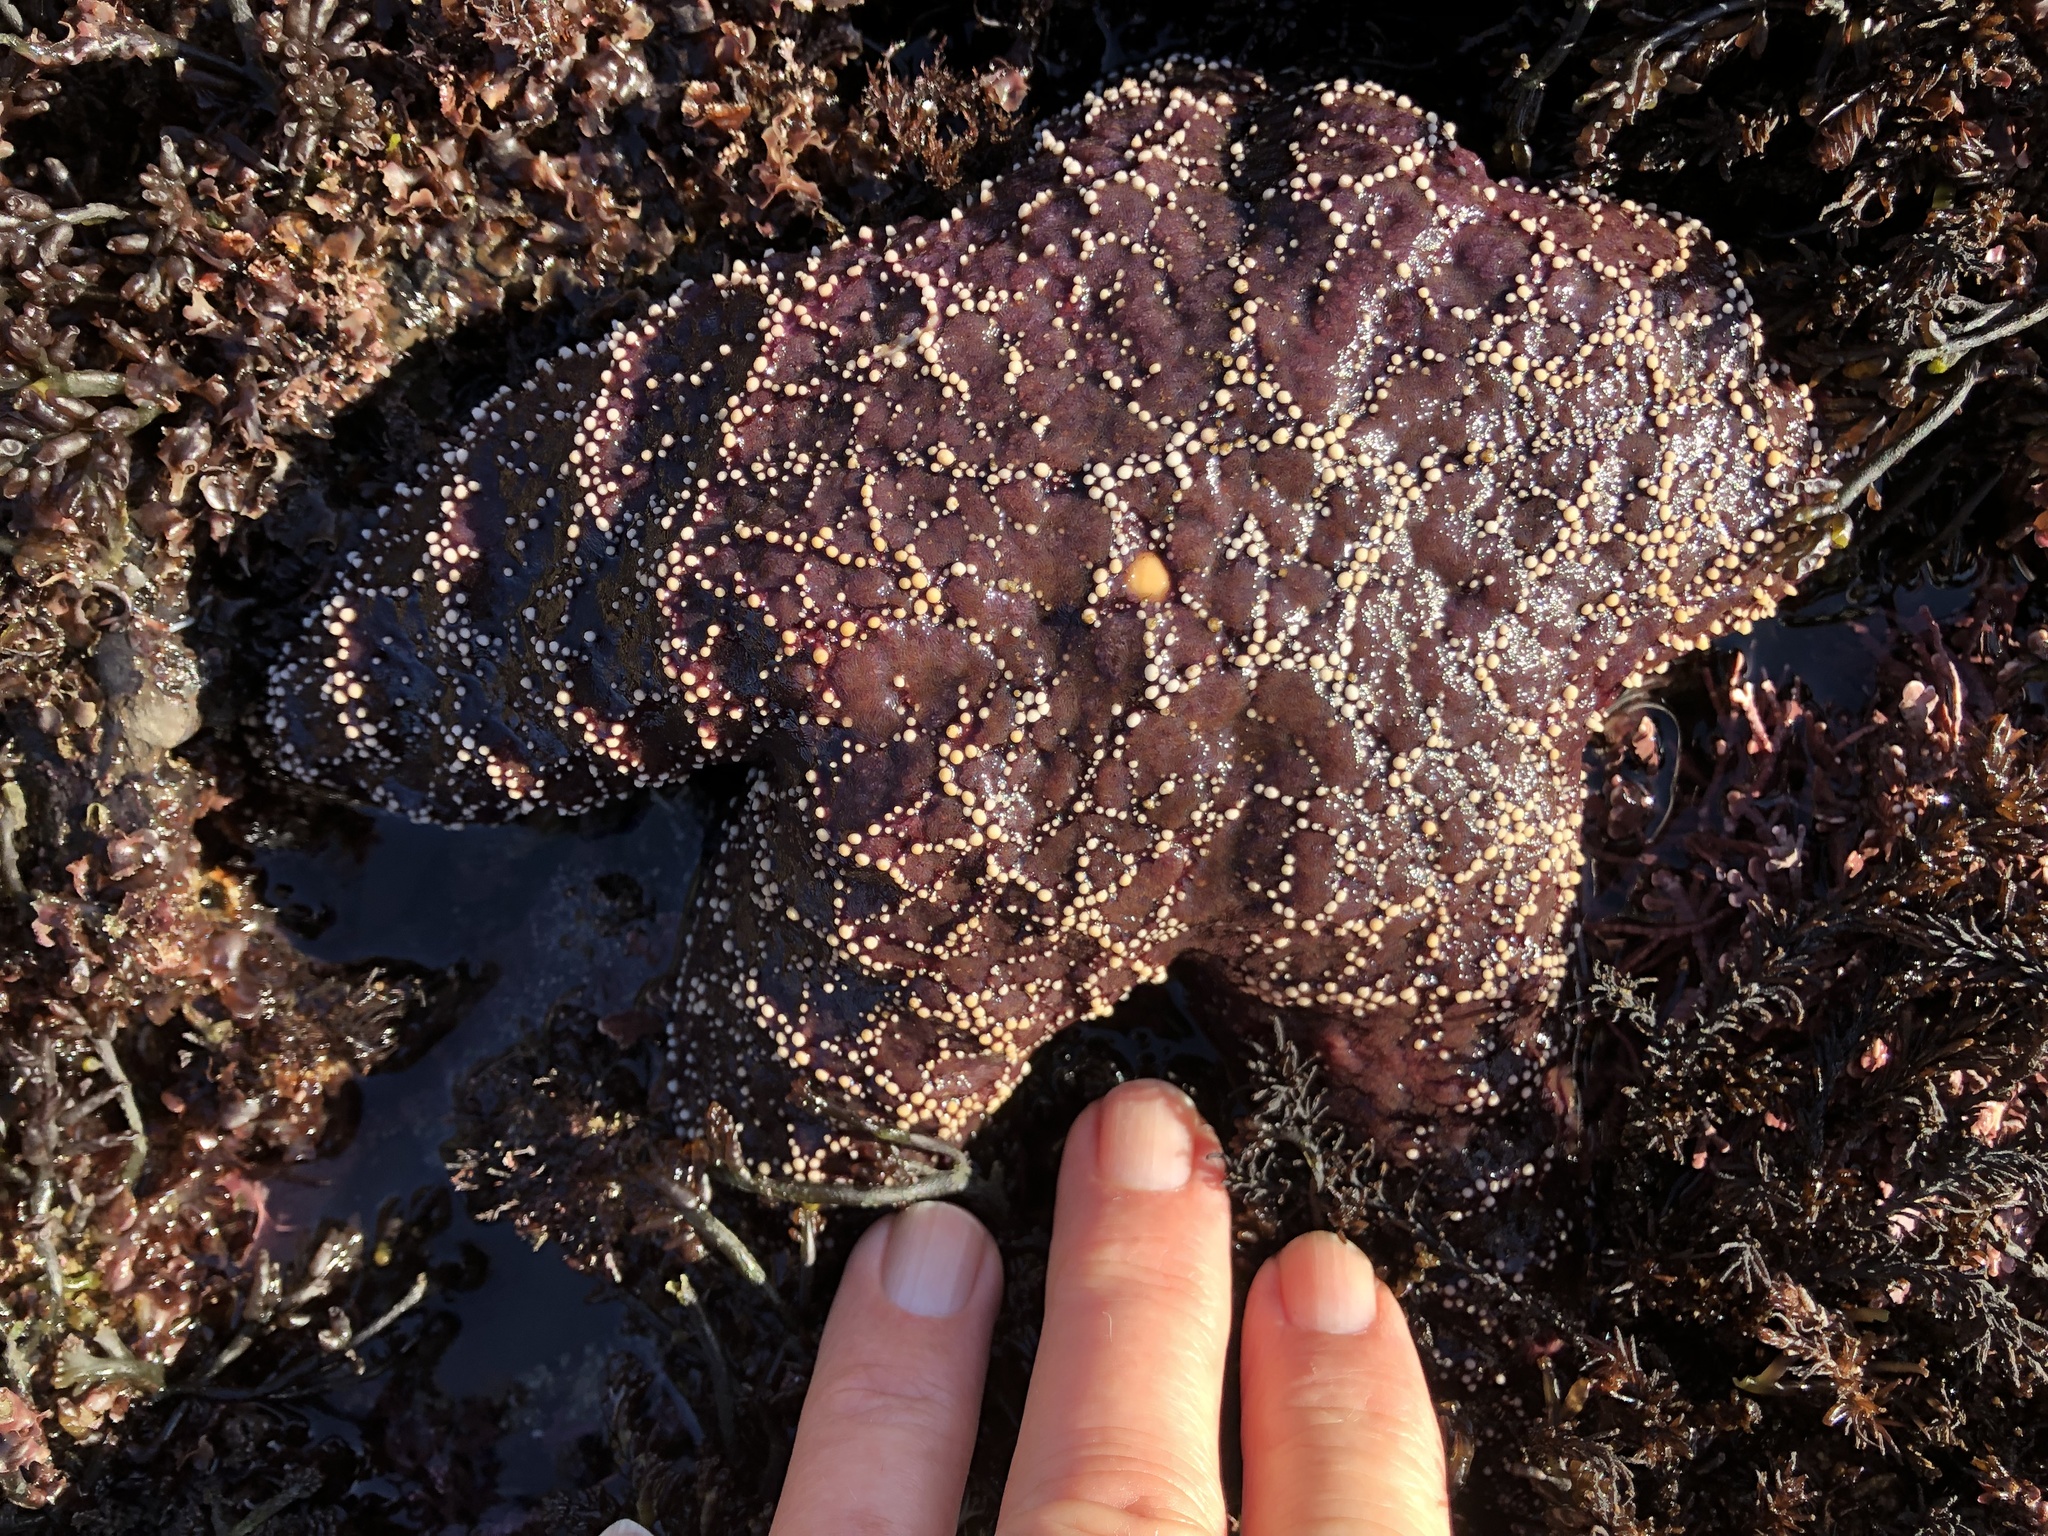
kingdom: Animalia
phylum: Echinodermata
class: Asteroidea
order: Forcipulatida
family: Asteriidae
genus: Pisaster
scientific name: Pisaster ochraceus
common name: Ochre stars
